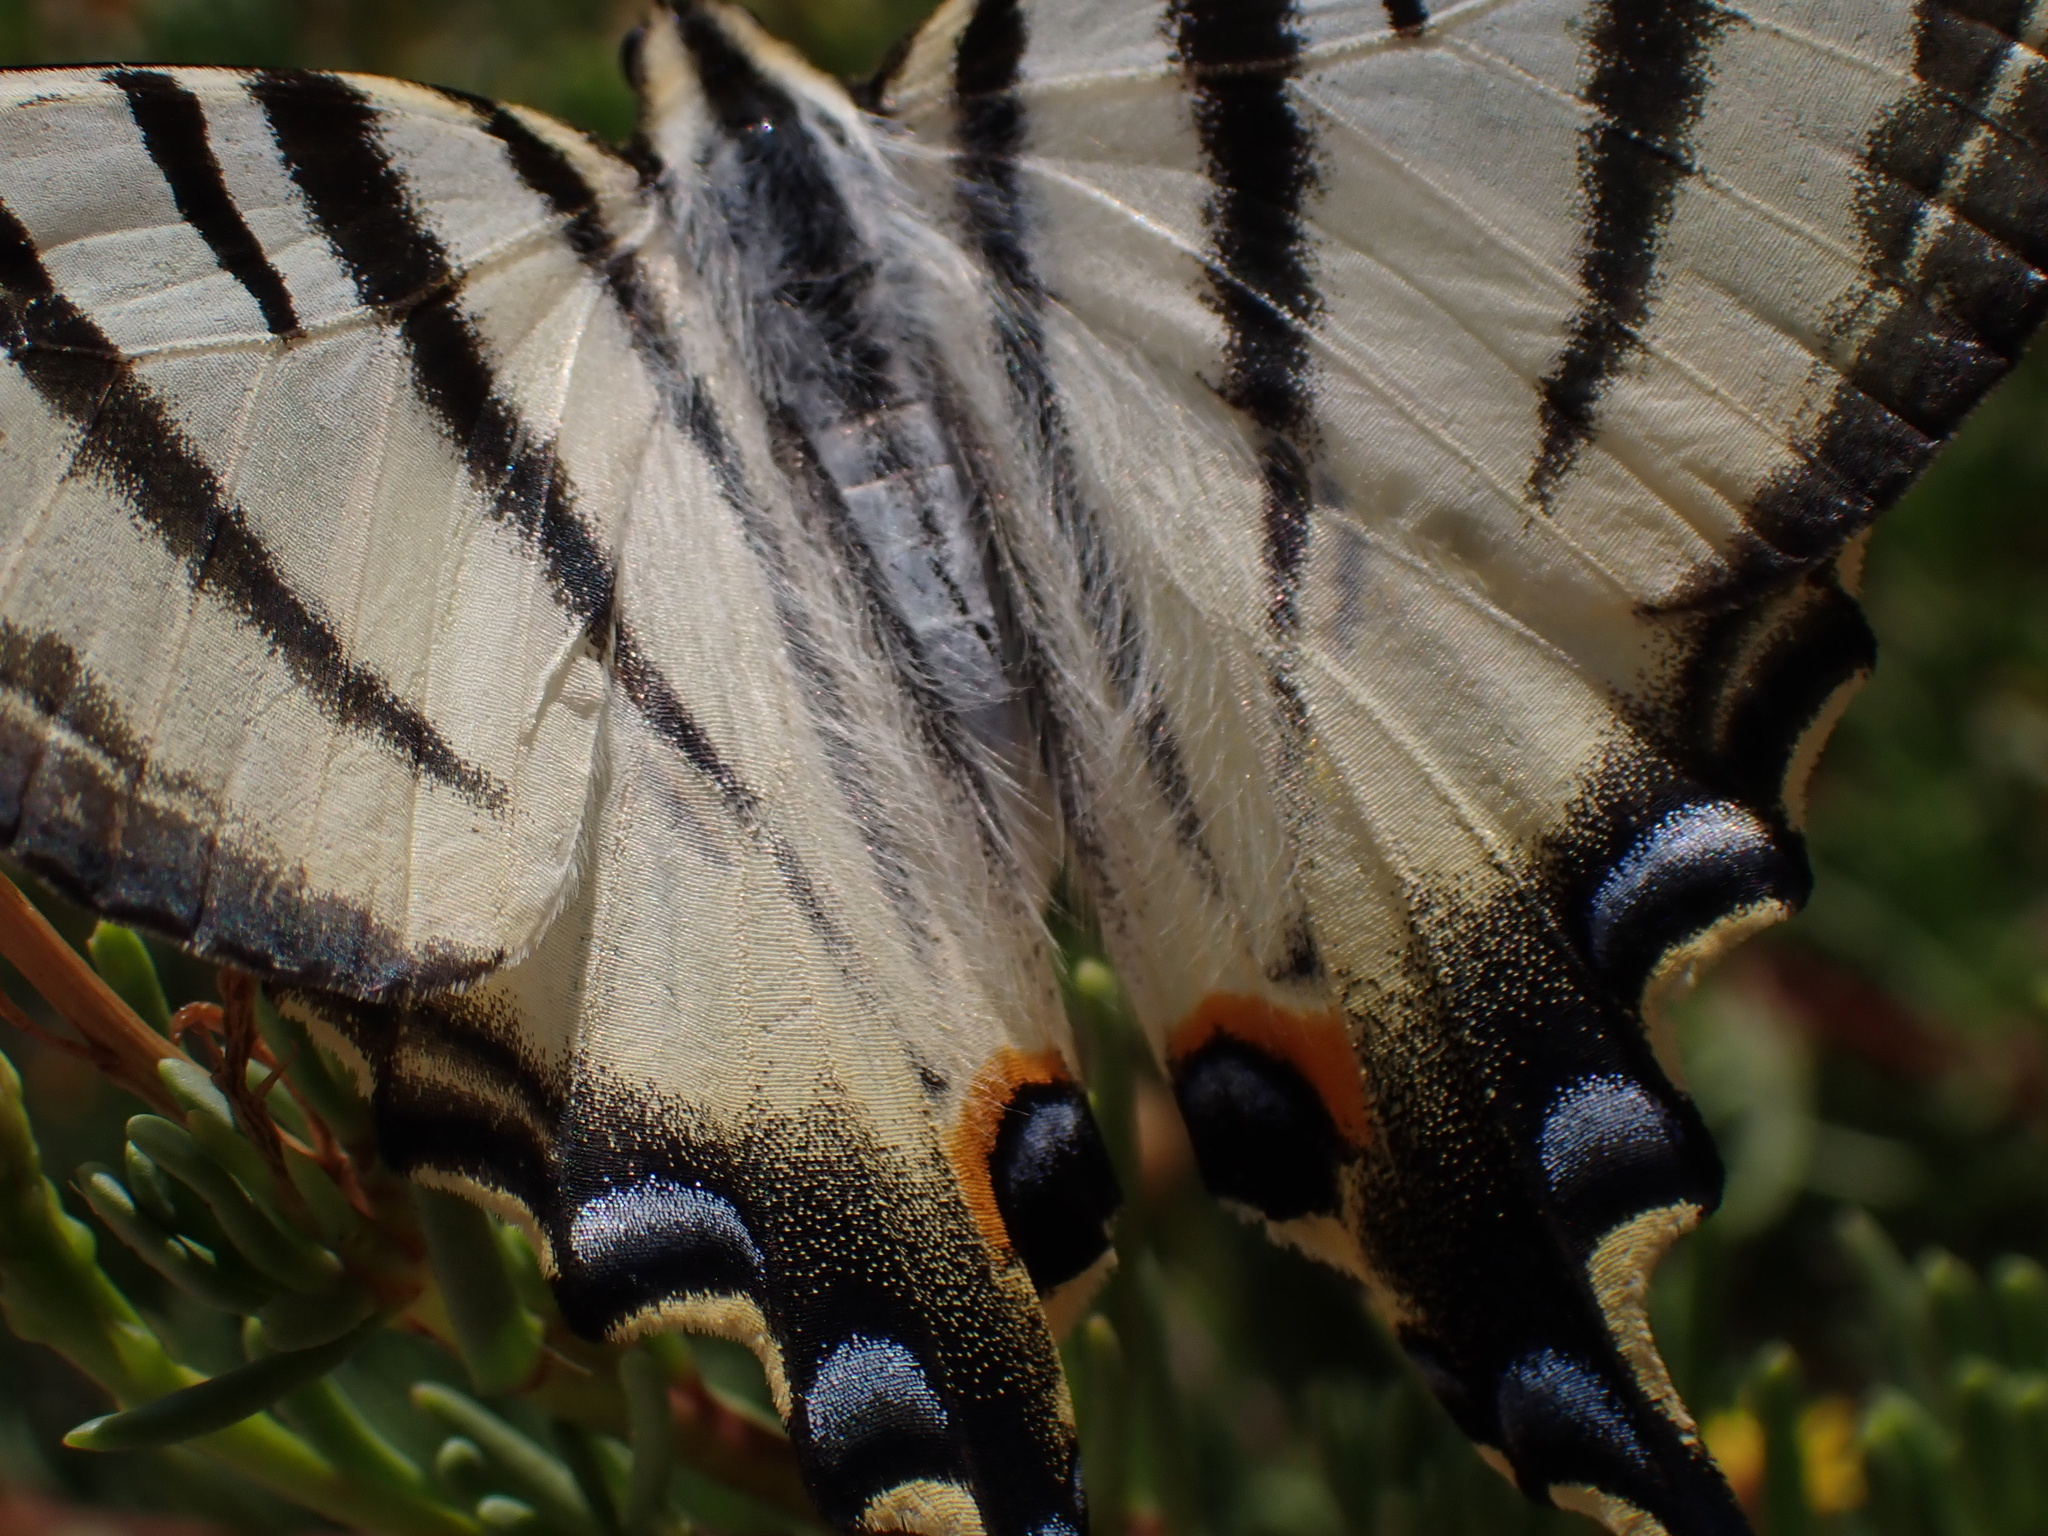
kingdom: Animalia
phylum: Arthropoda
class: Insecta
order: Lepidoptera
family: Papilionidae
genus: Iphiclides
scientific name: Iphiclides podalirius
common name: Scarce swallowtail
